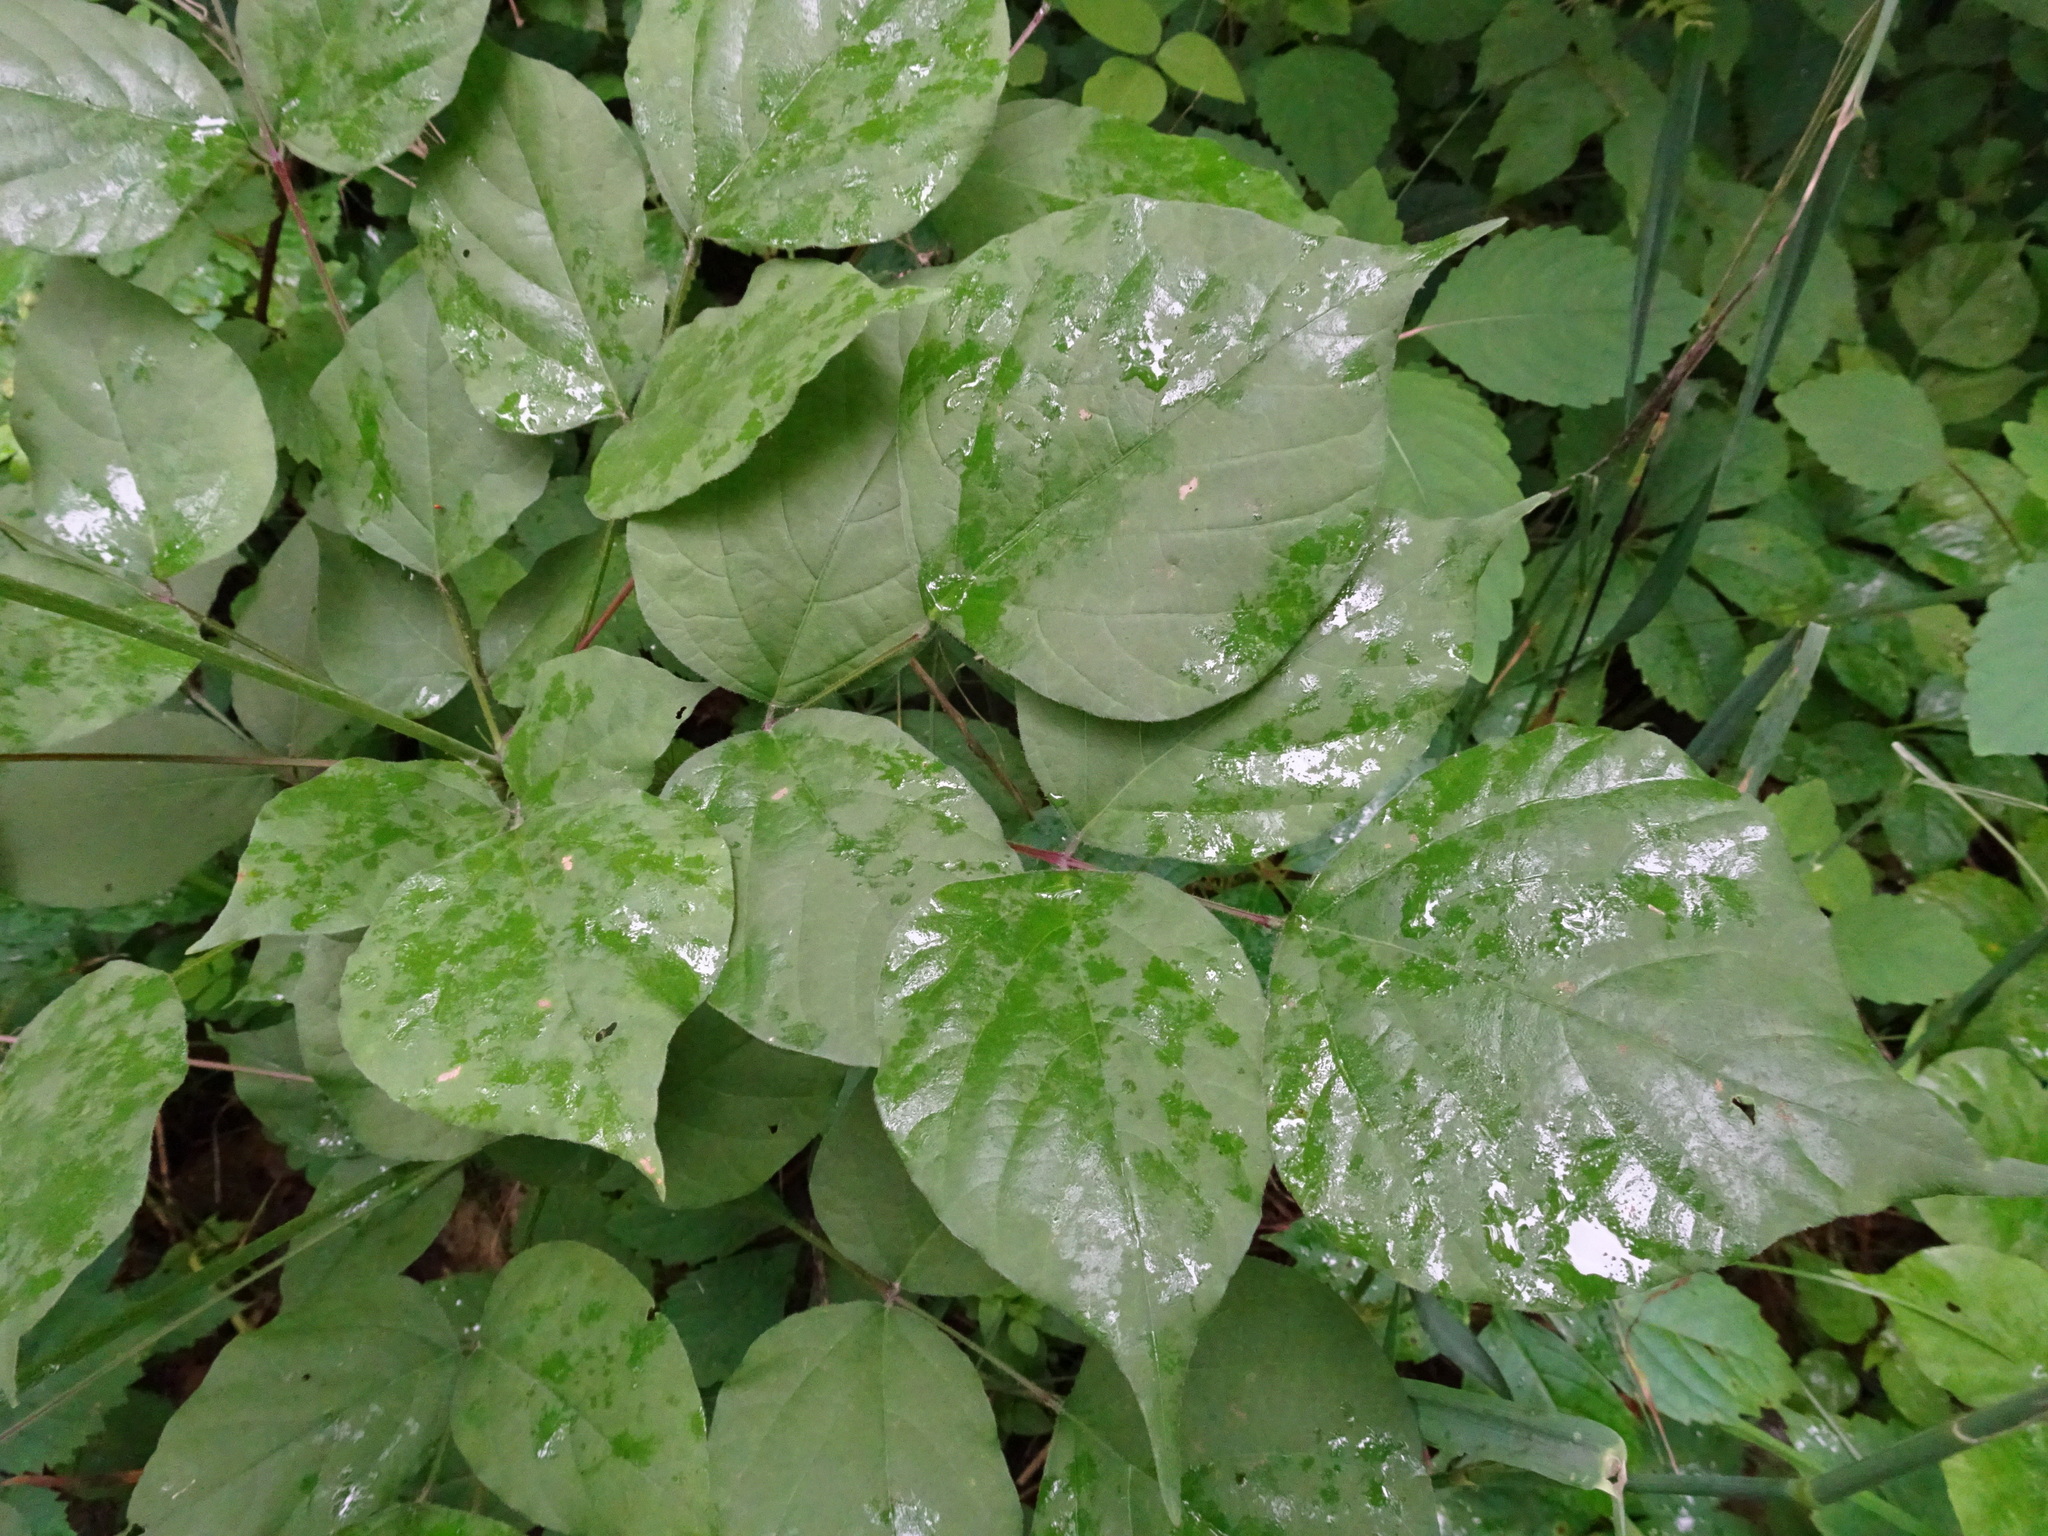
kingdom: Plantae
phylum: Tracheophyta
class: Magnoliopsida
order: Fabales
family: Fabaceae
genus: Hylodesmum
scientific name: Hylodesmum glutinosum
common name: Clustered-leaved tick-trefoil
